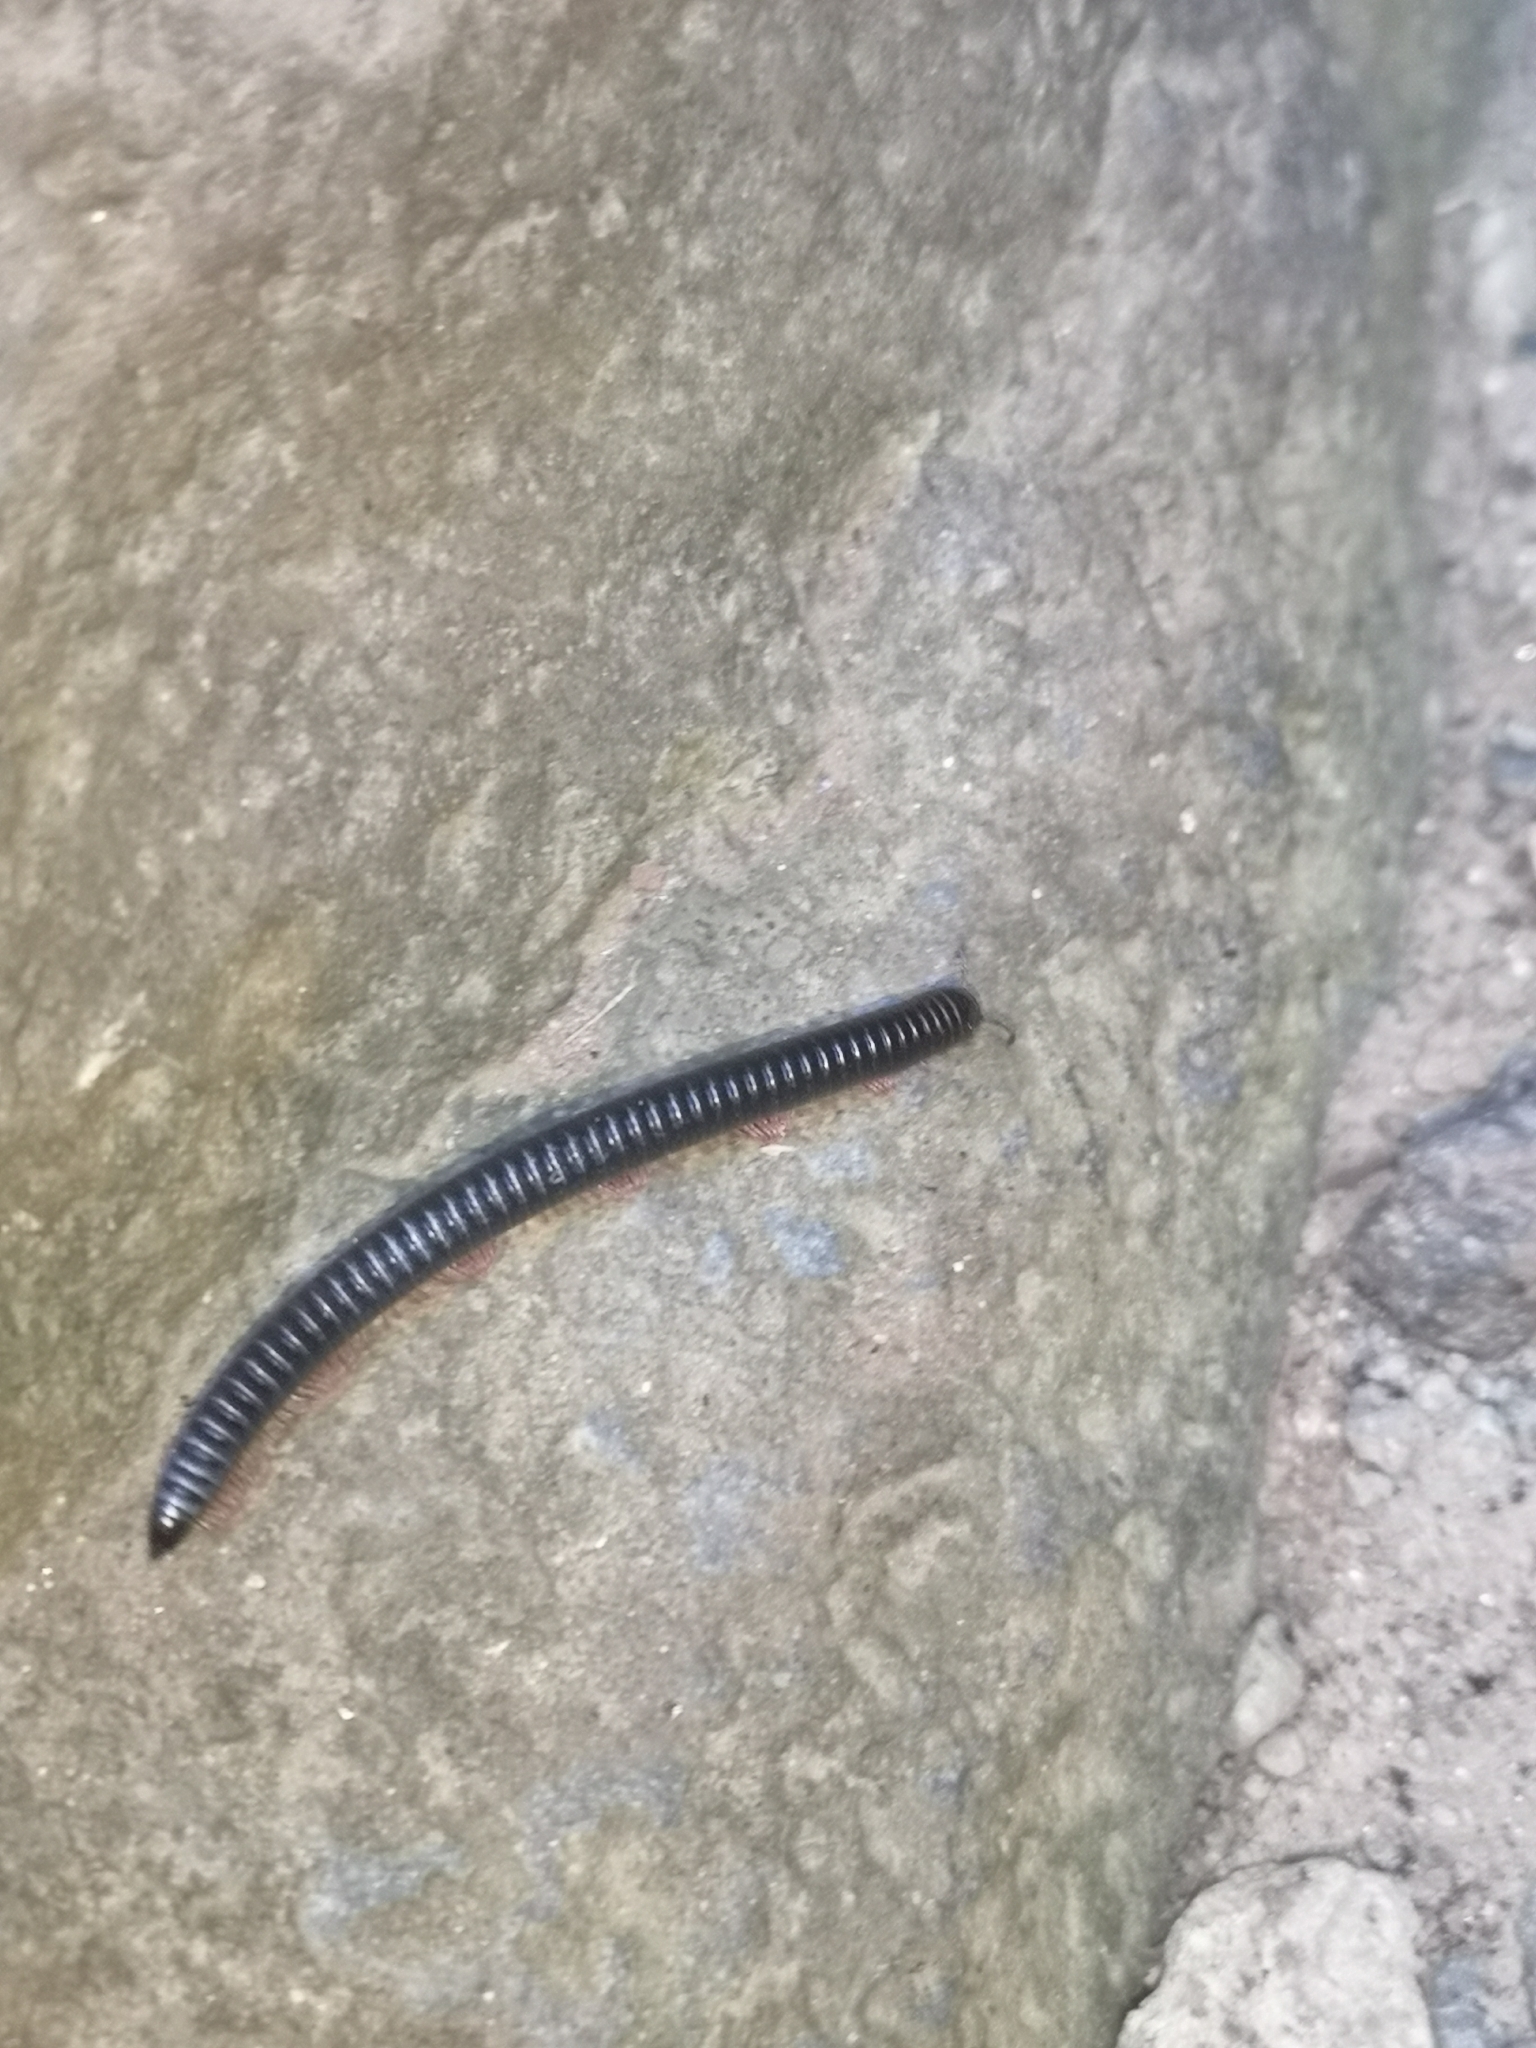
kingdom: Animalia
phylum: Arthropoda
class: Diplopoda
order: Julida
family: Julidae
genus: Ommatoiulus
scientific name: Ommatoiulus moreleti
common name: Portuguese millipede
